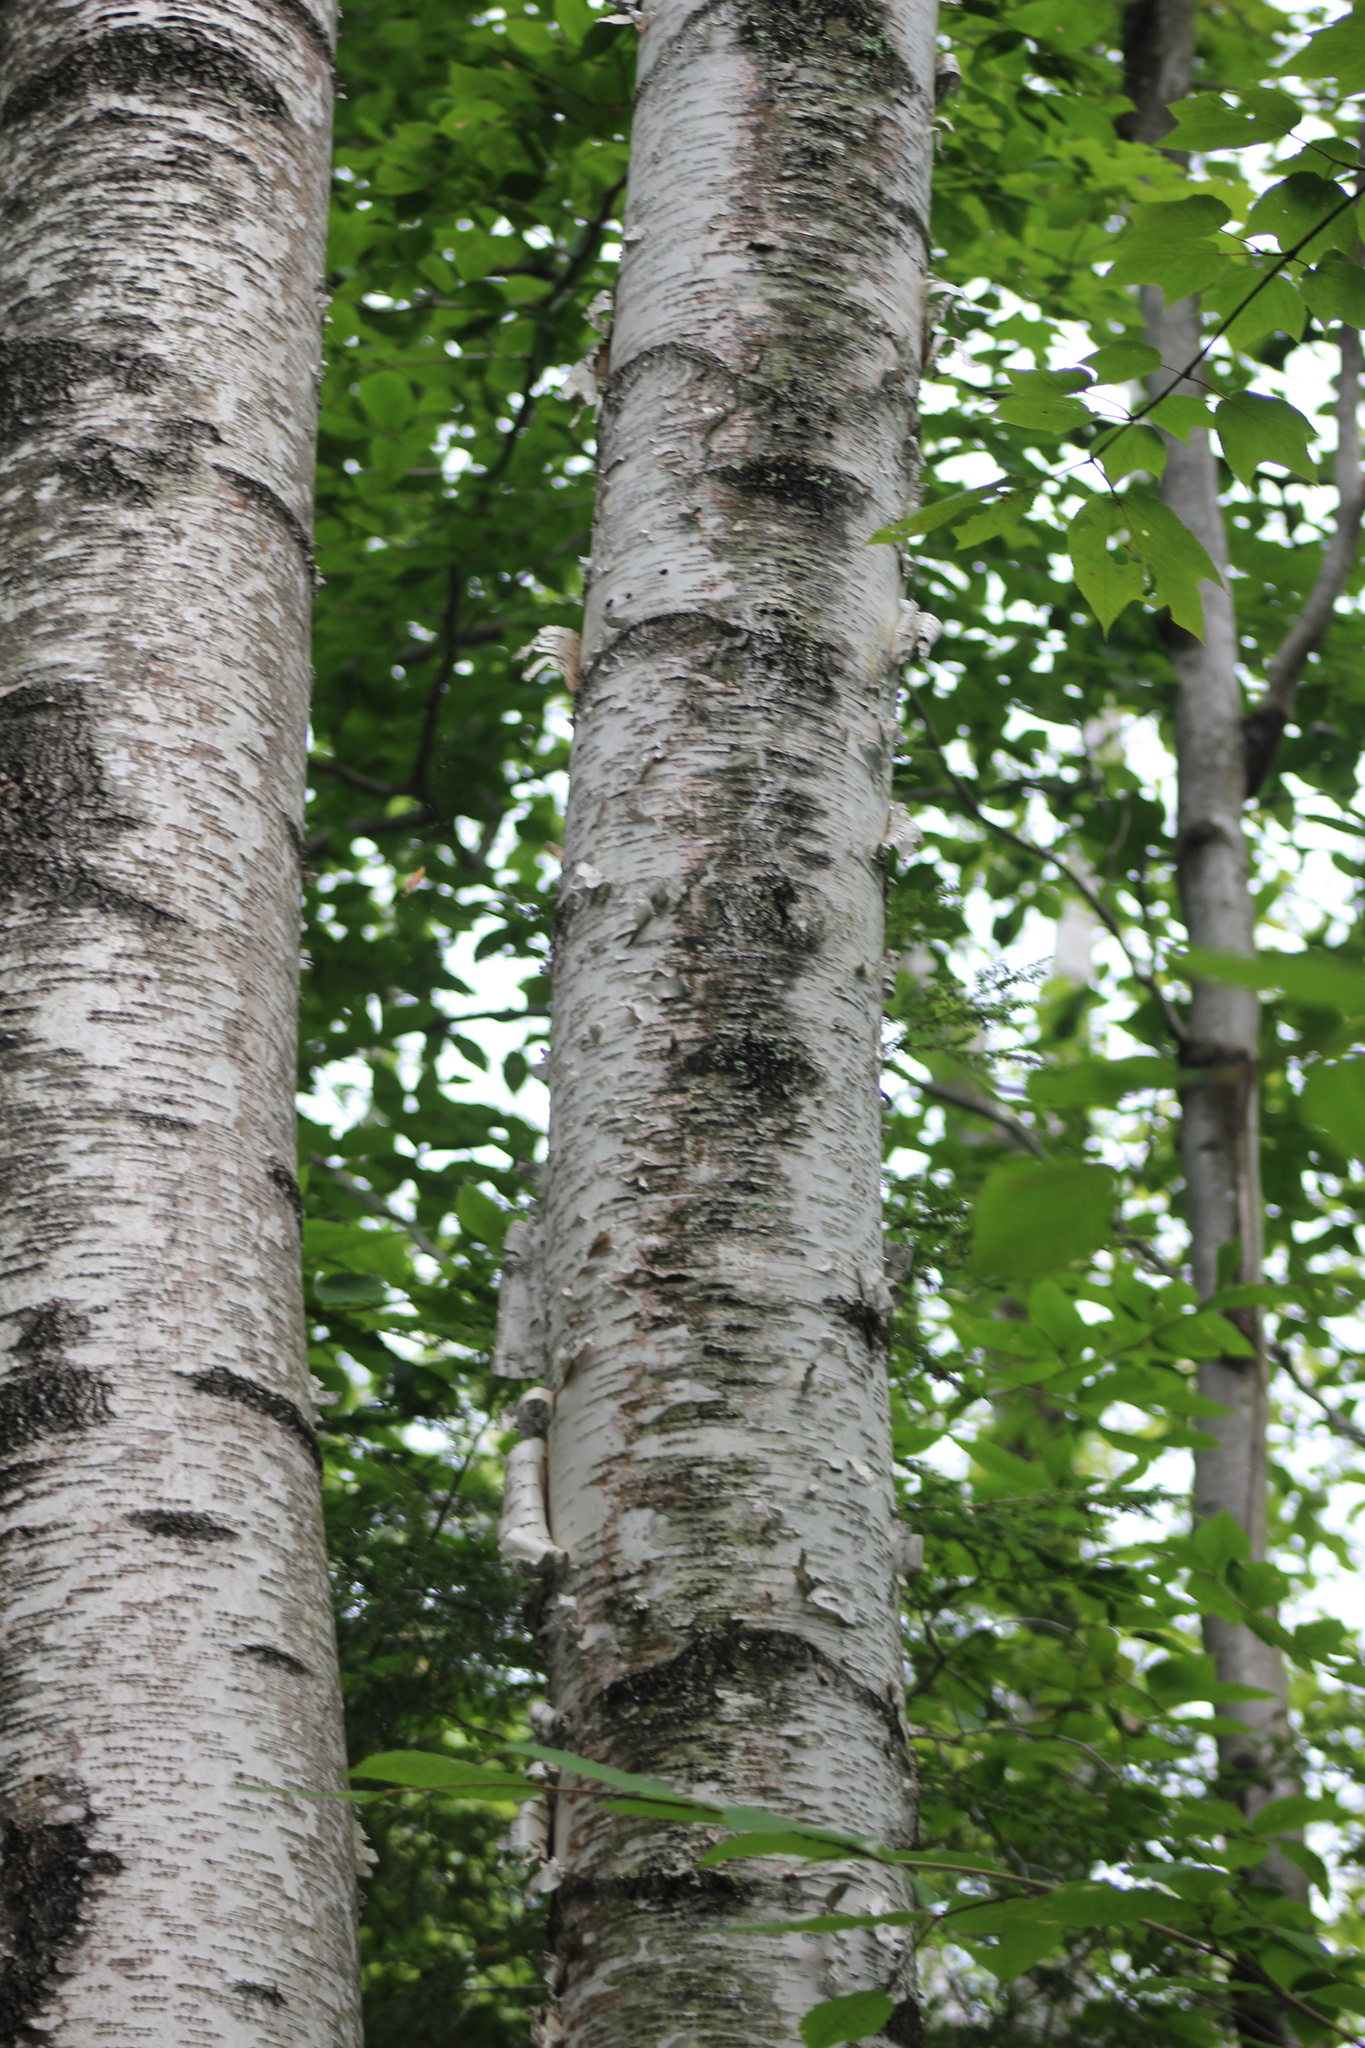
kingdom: Plantae
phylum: Tracheophyta
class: Magnoliopsida
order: Fagales
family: Betulaceae
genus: Betula
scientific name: Betula papyrifera
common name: Paper birch
